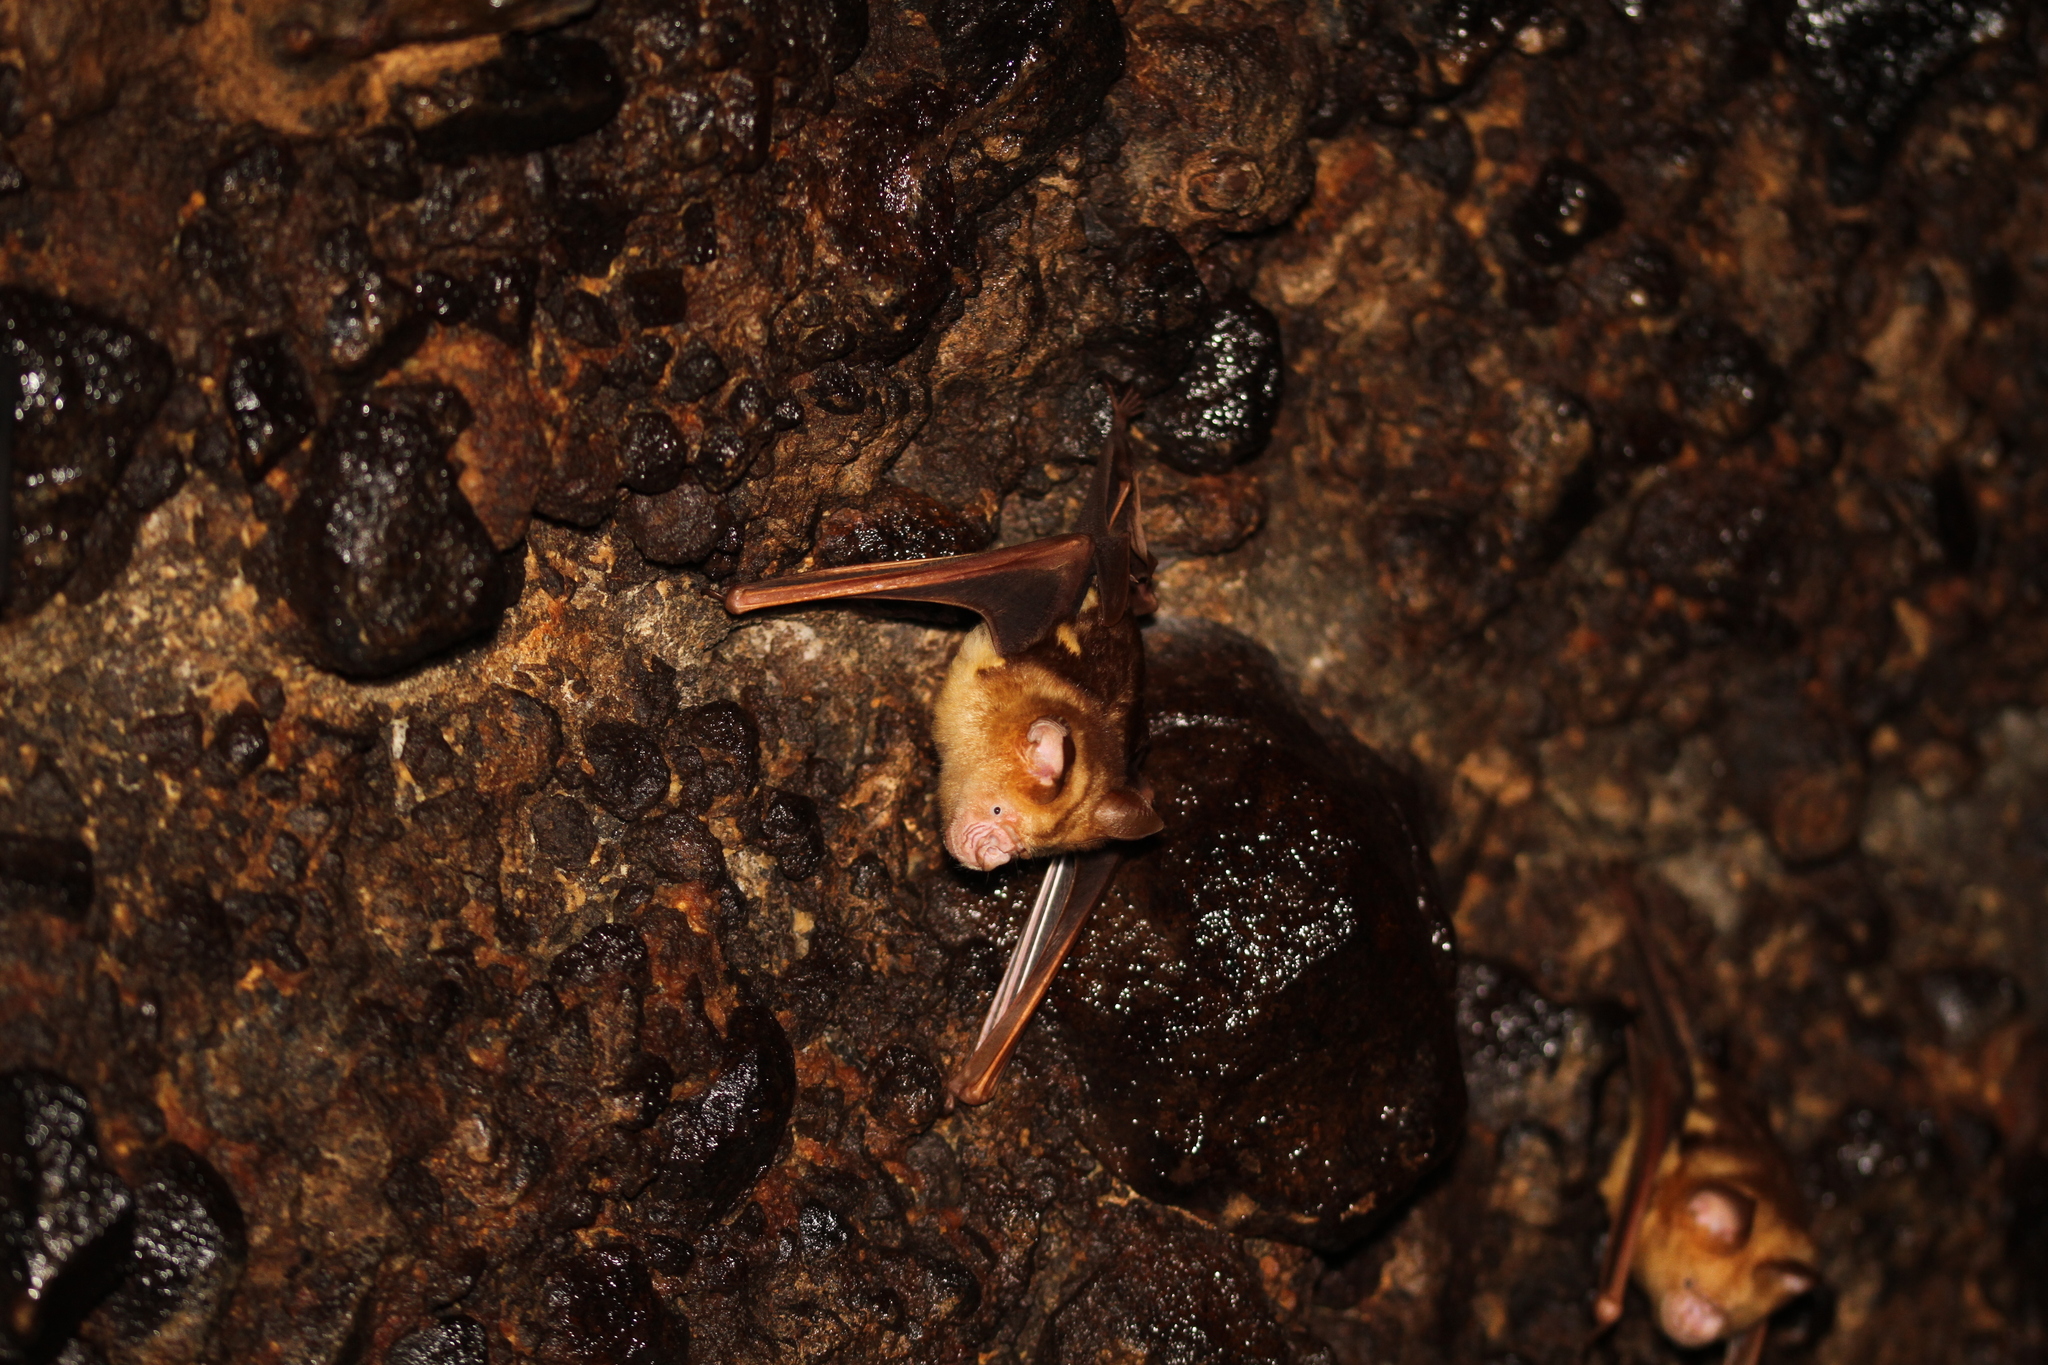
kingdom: Animalia
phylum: Chordata
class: Mammalia
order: Chiroptera
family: Hipposideridae
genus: Hipposideros
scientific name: Hipposideros diadema
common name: Diadem leaf-nosed bat
